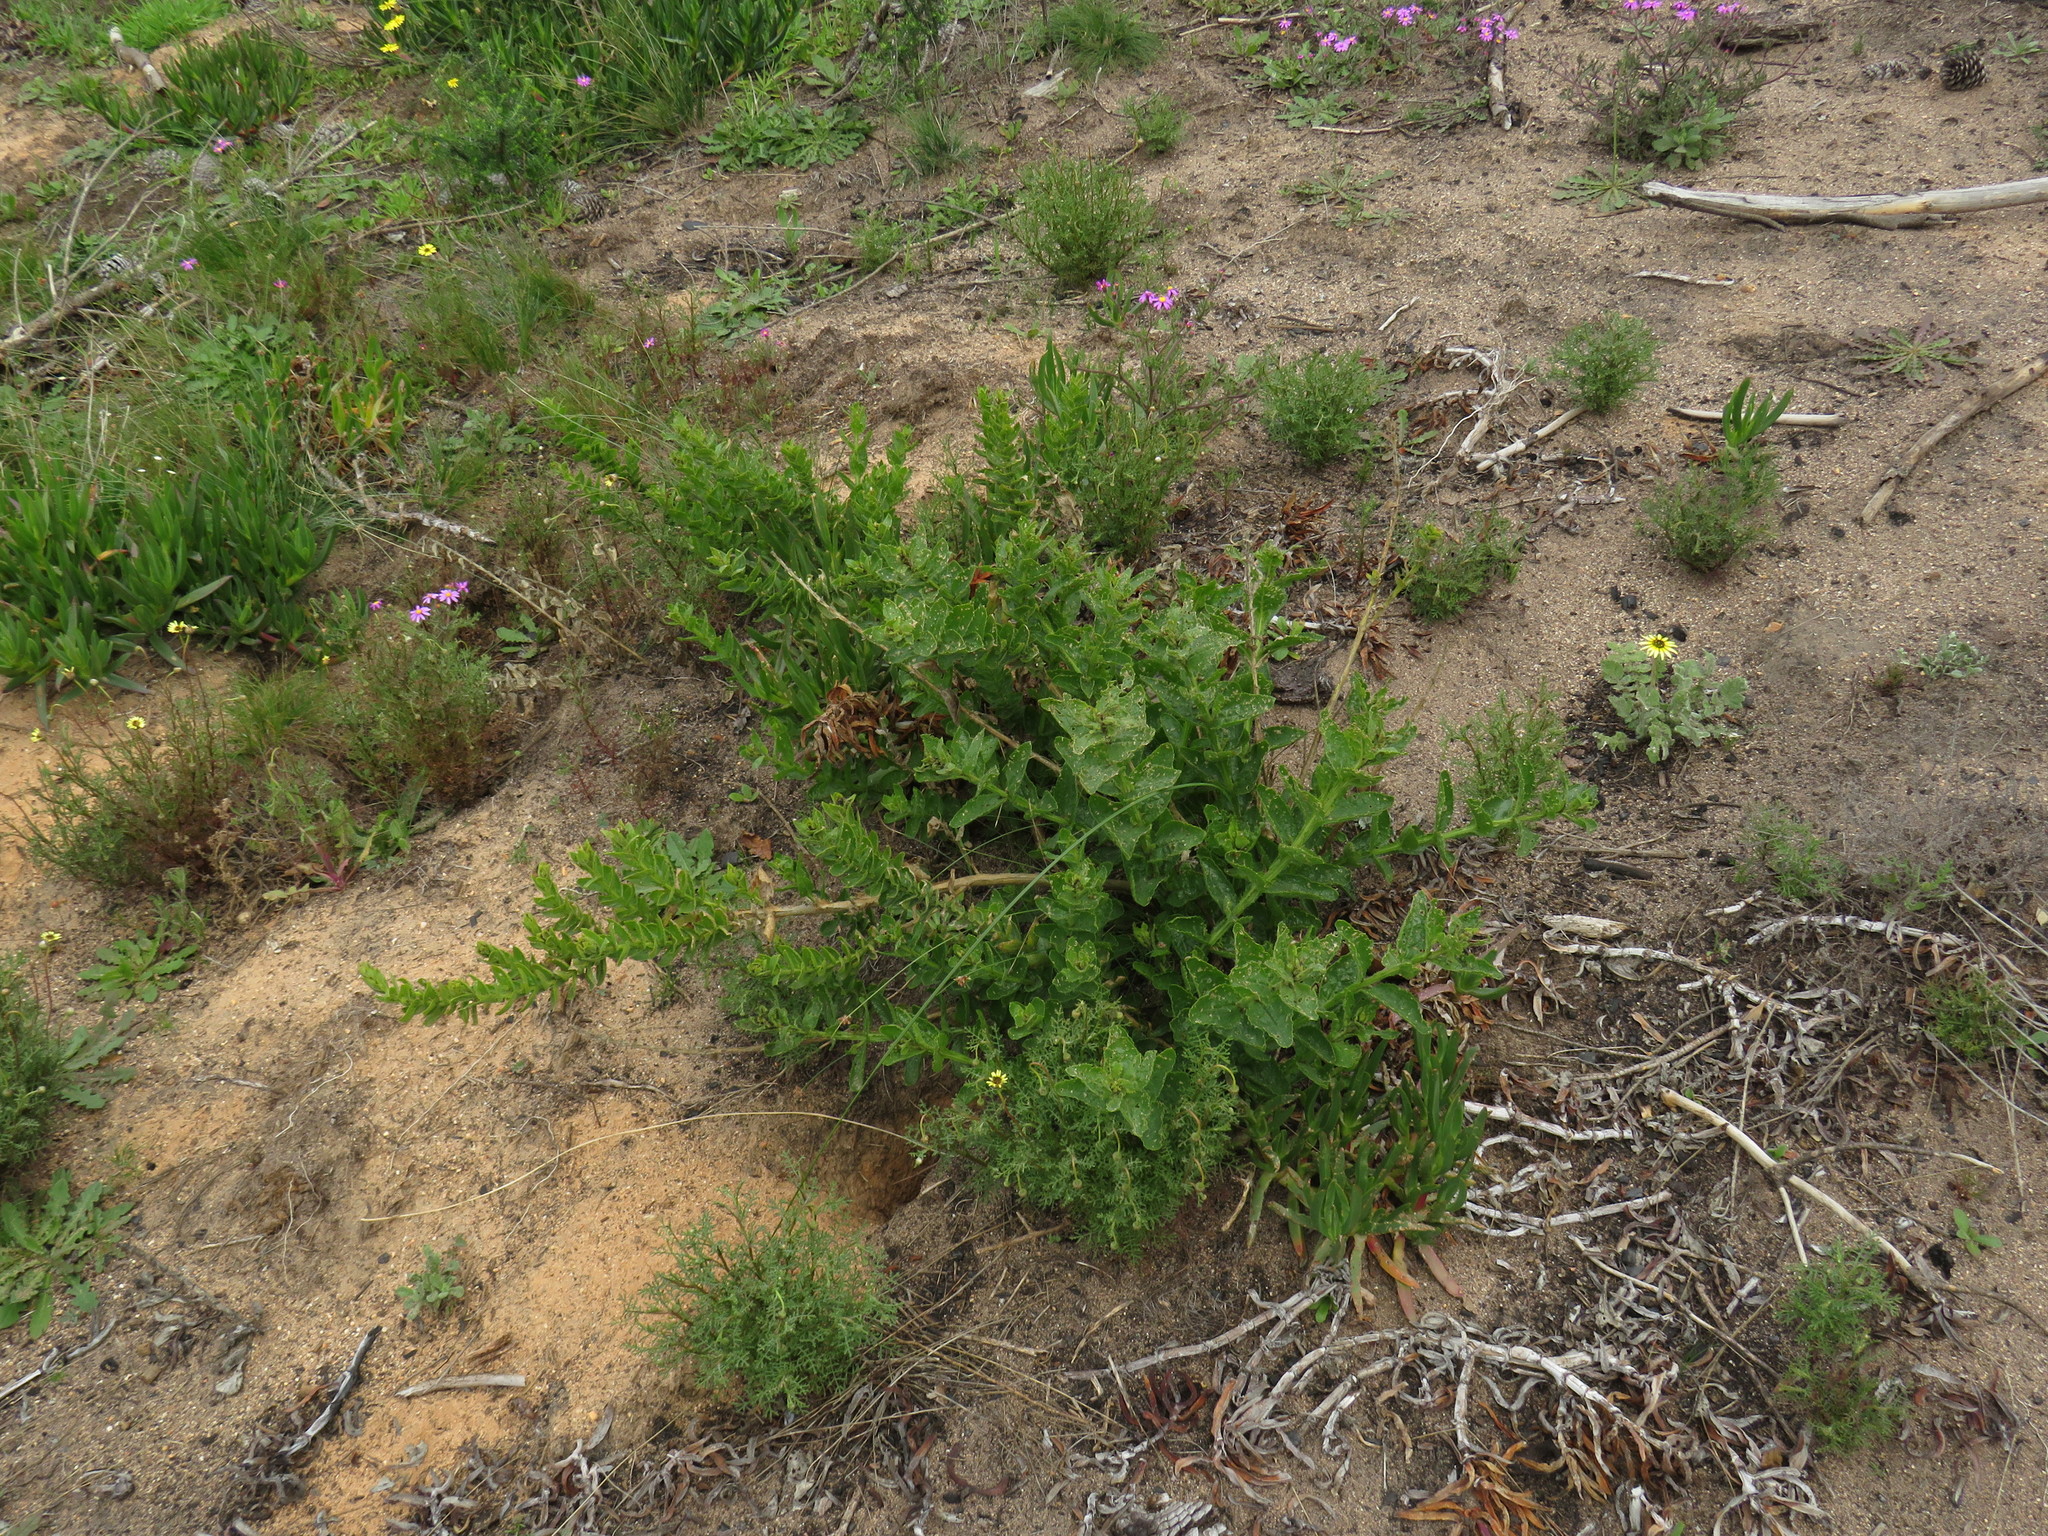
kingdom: Plantae
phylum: Tracheophyta
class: Magnoliopsida
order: Asterales
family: Asteraceae
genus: Arctotheca
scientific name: Arctotheca calendula
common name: Capeweed
